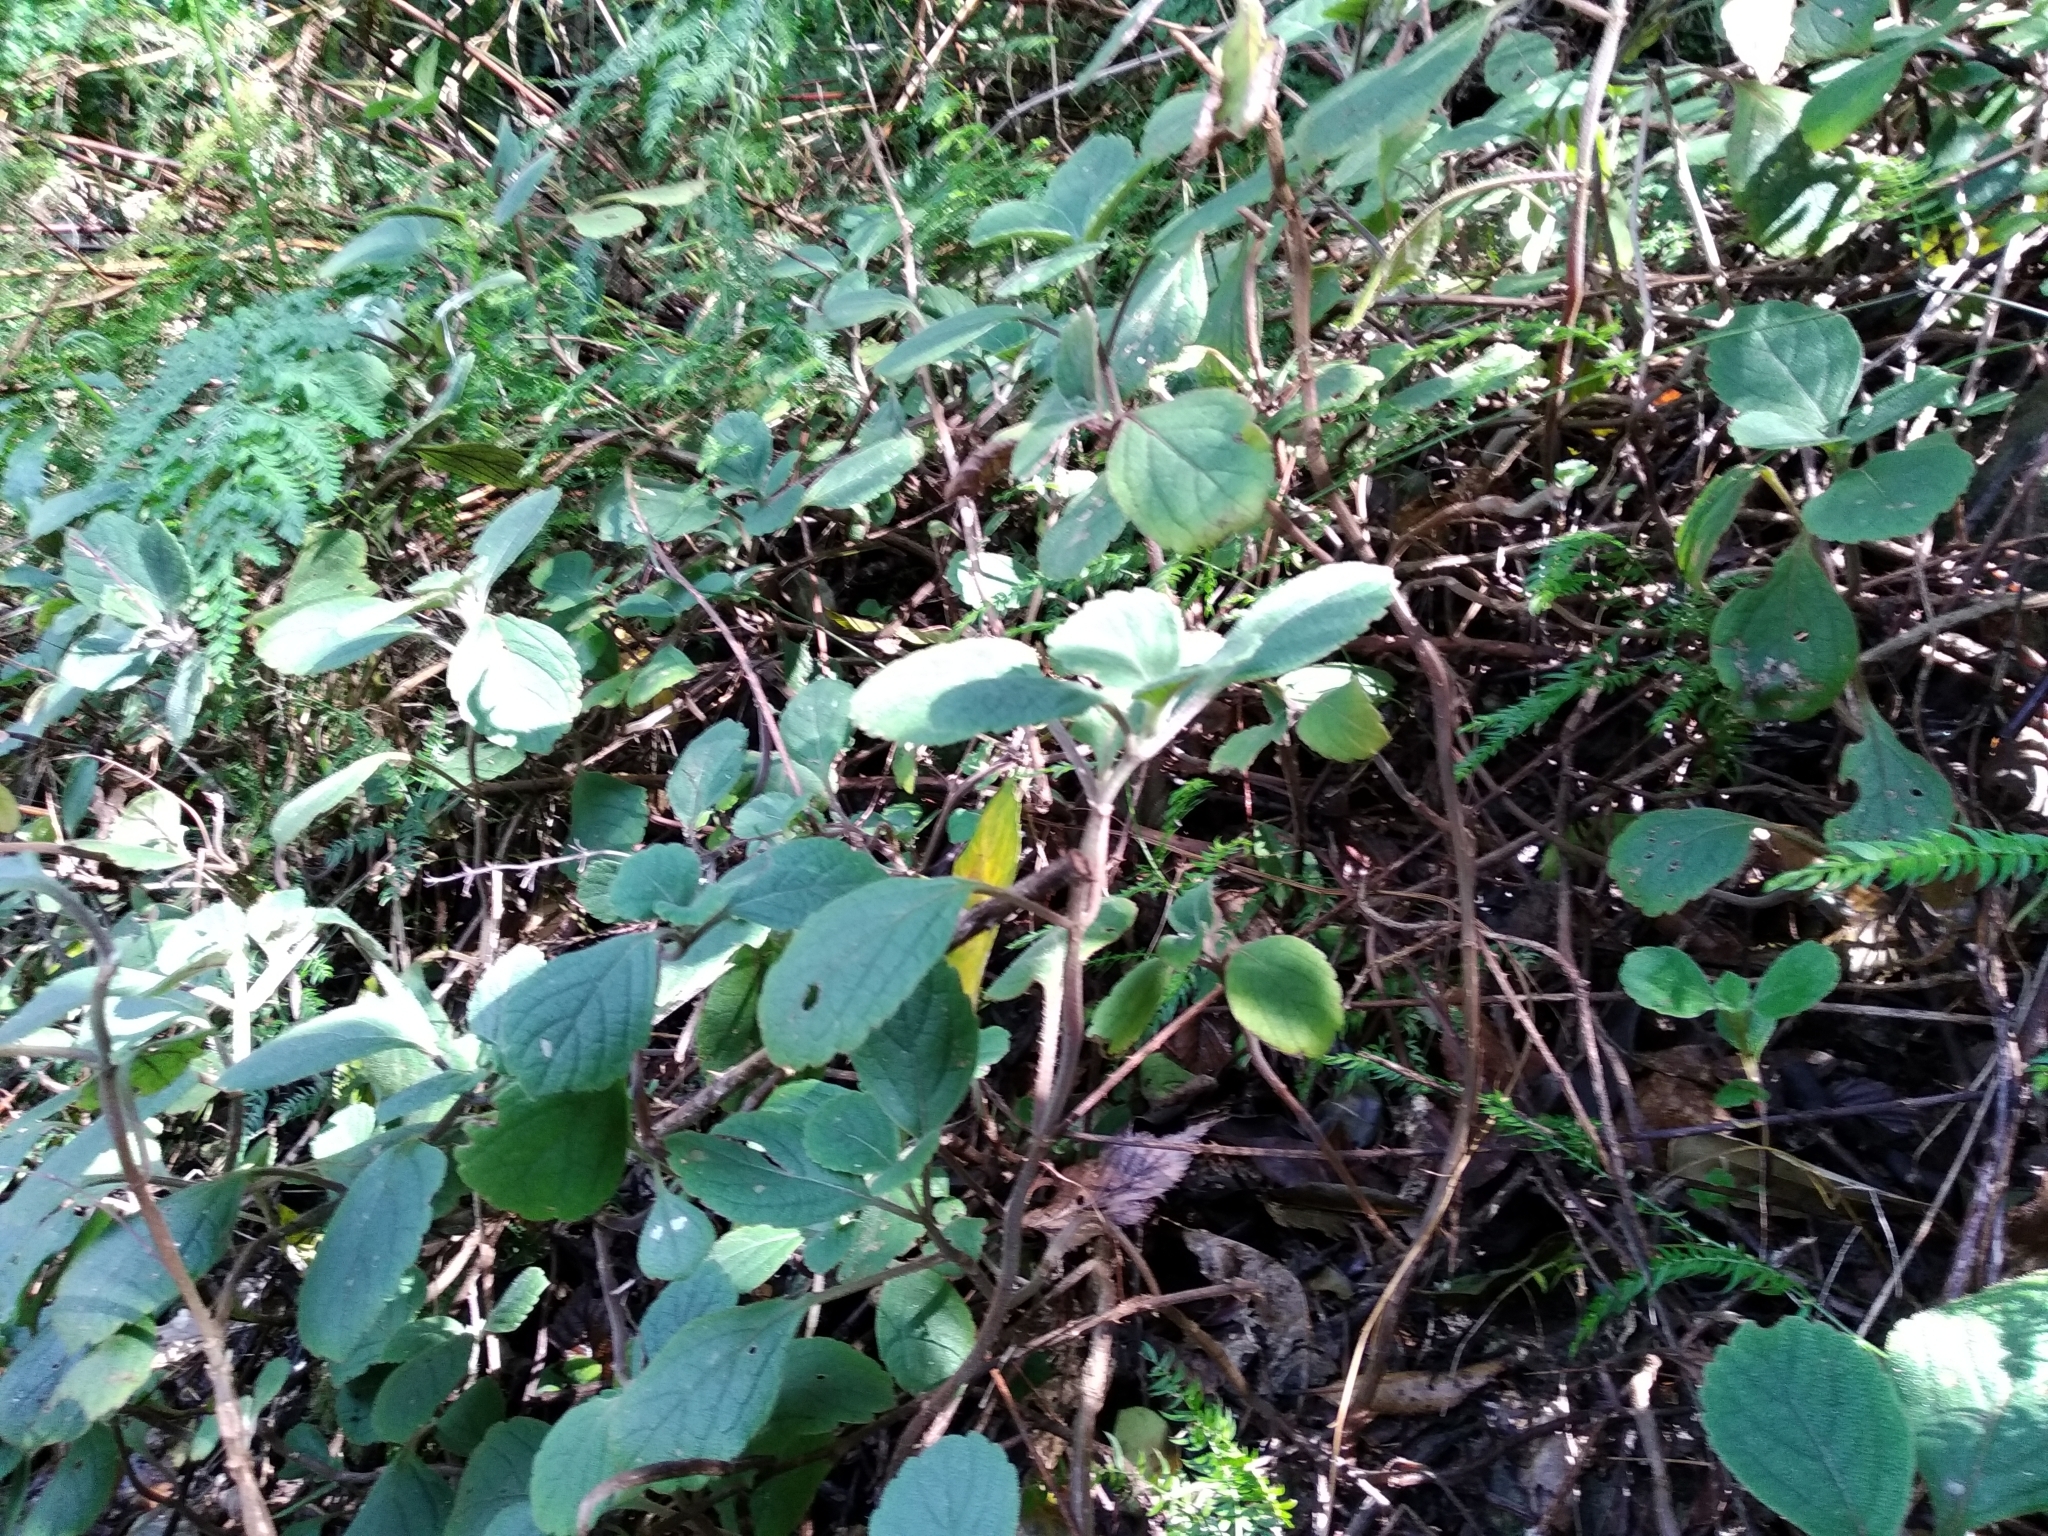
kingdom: Plantae
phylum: Tracheophyta
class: Magnoliopsida
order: Lamiales
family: Lamiaceae
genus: Plectranthus
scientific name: Plectranthus malvinus
